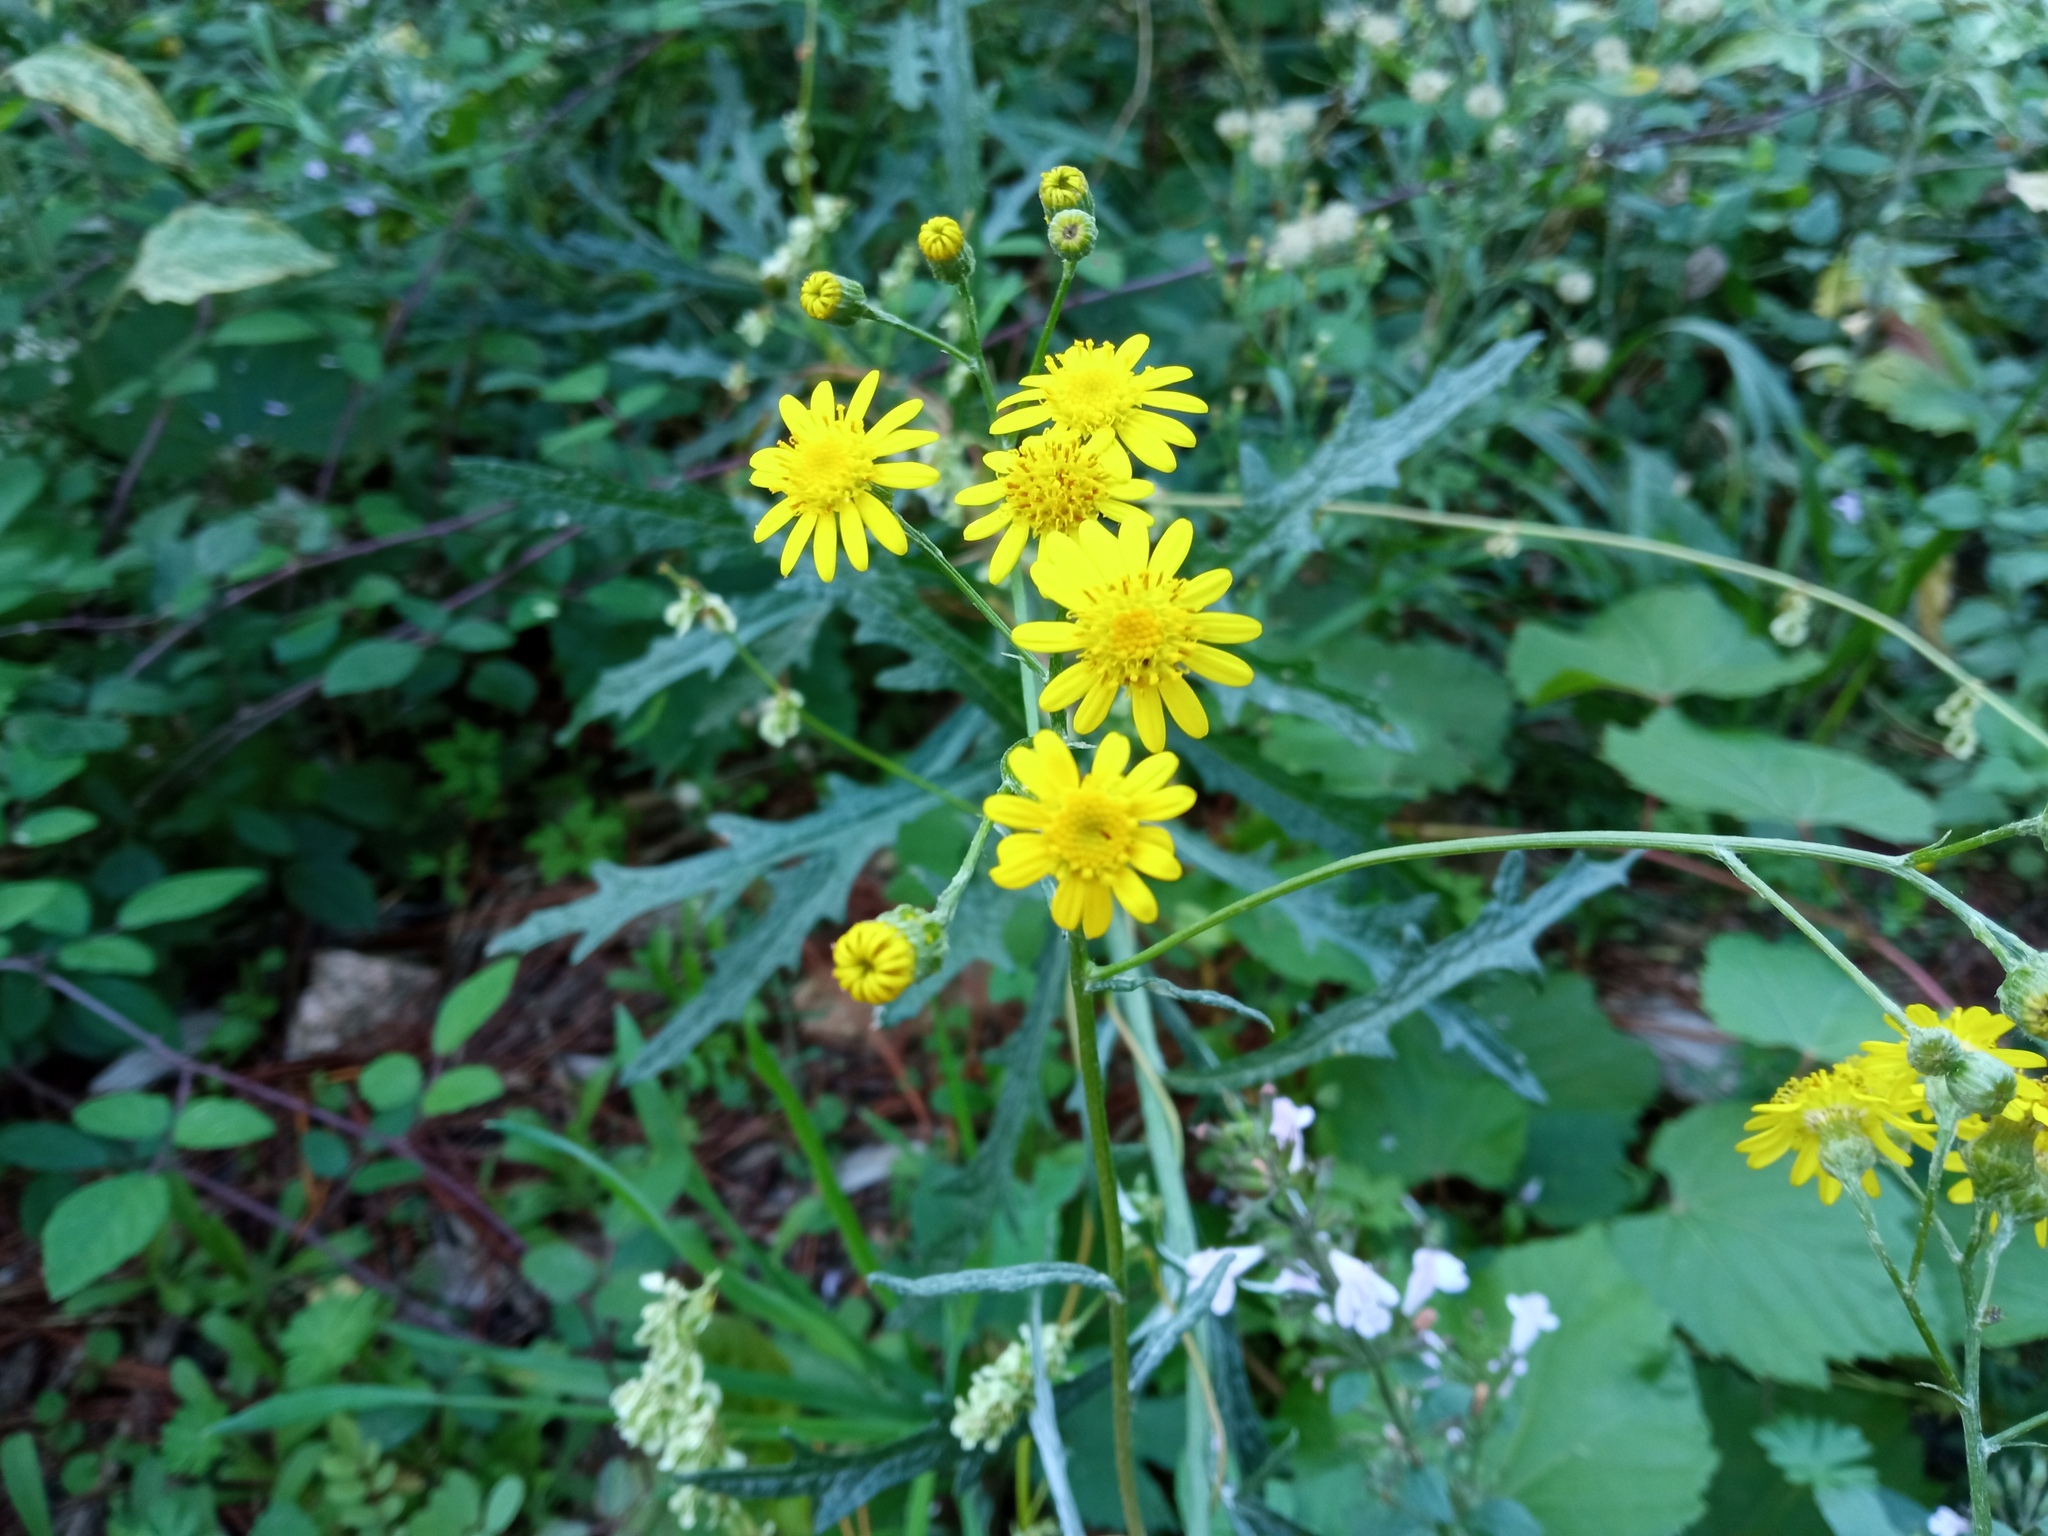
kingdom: Plantae
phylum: Tracheophyta
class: Magnoliopsida
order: Asterales
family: Asteraceae
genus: Senecio
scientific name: Senecio pterophorus
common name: Shoddy ragwort
